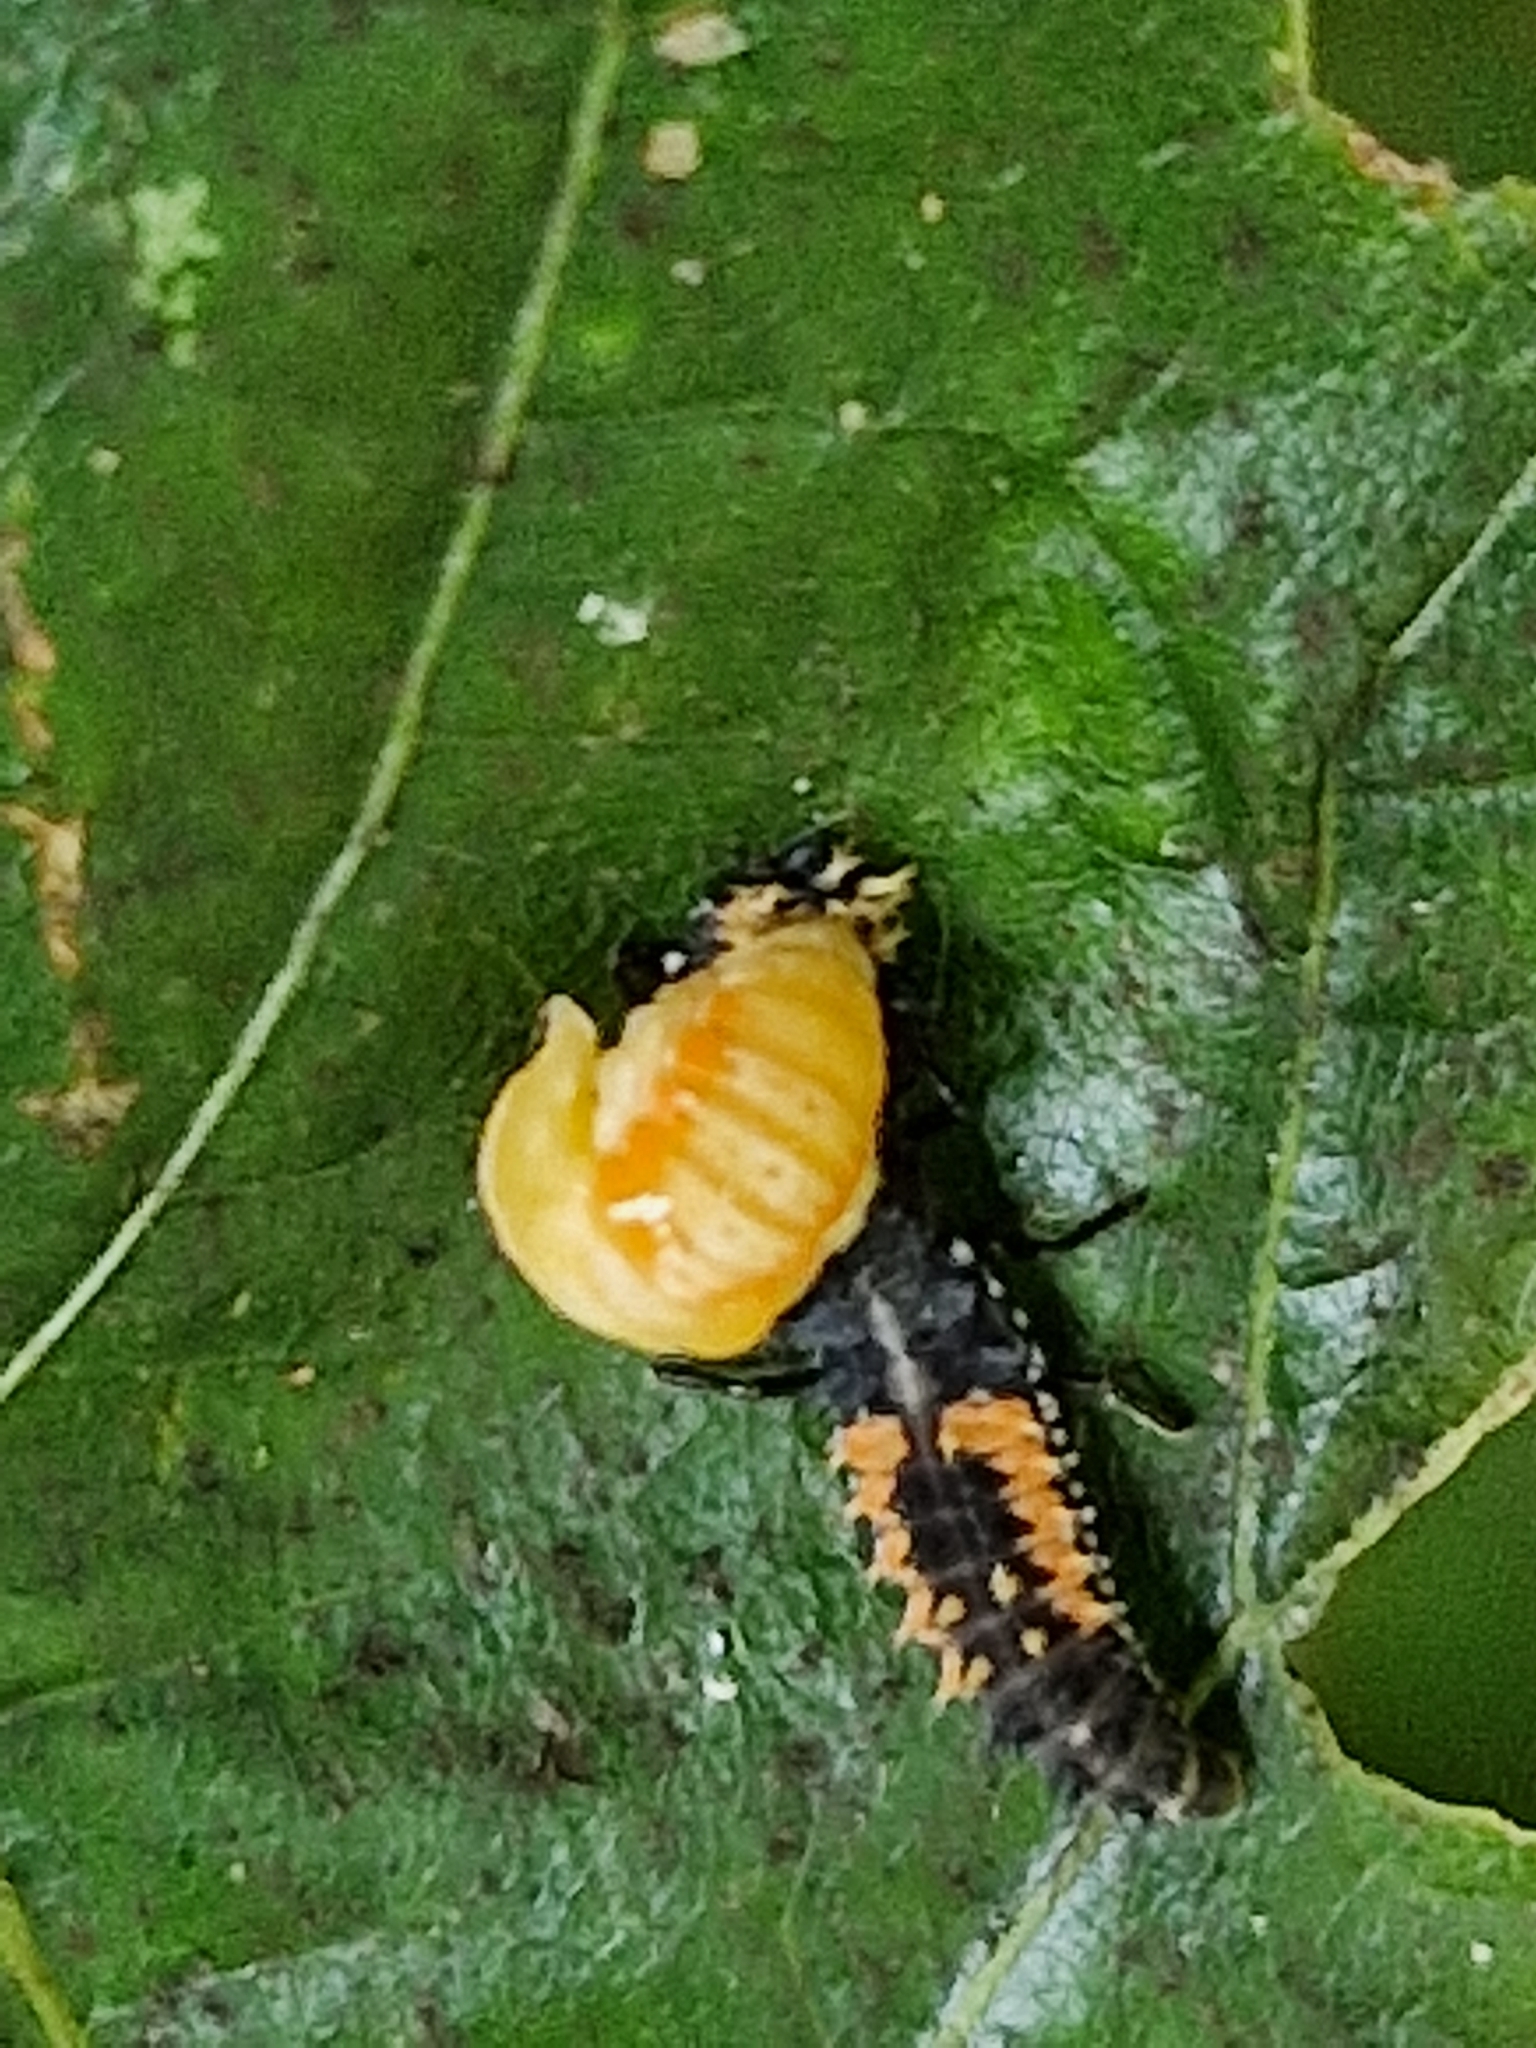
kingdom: Animalia
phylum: Arthropoda
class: Insecta
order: Coleoptera
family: Coccinellidae
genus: Harmonia
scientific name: Harmonia axyridis
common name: Harlequin ladybird
